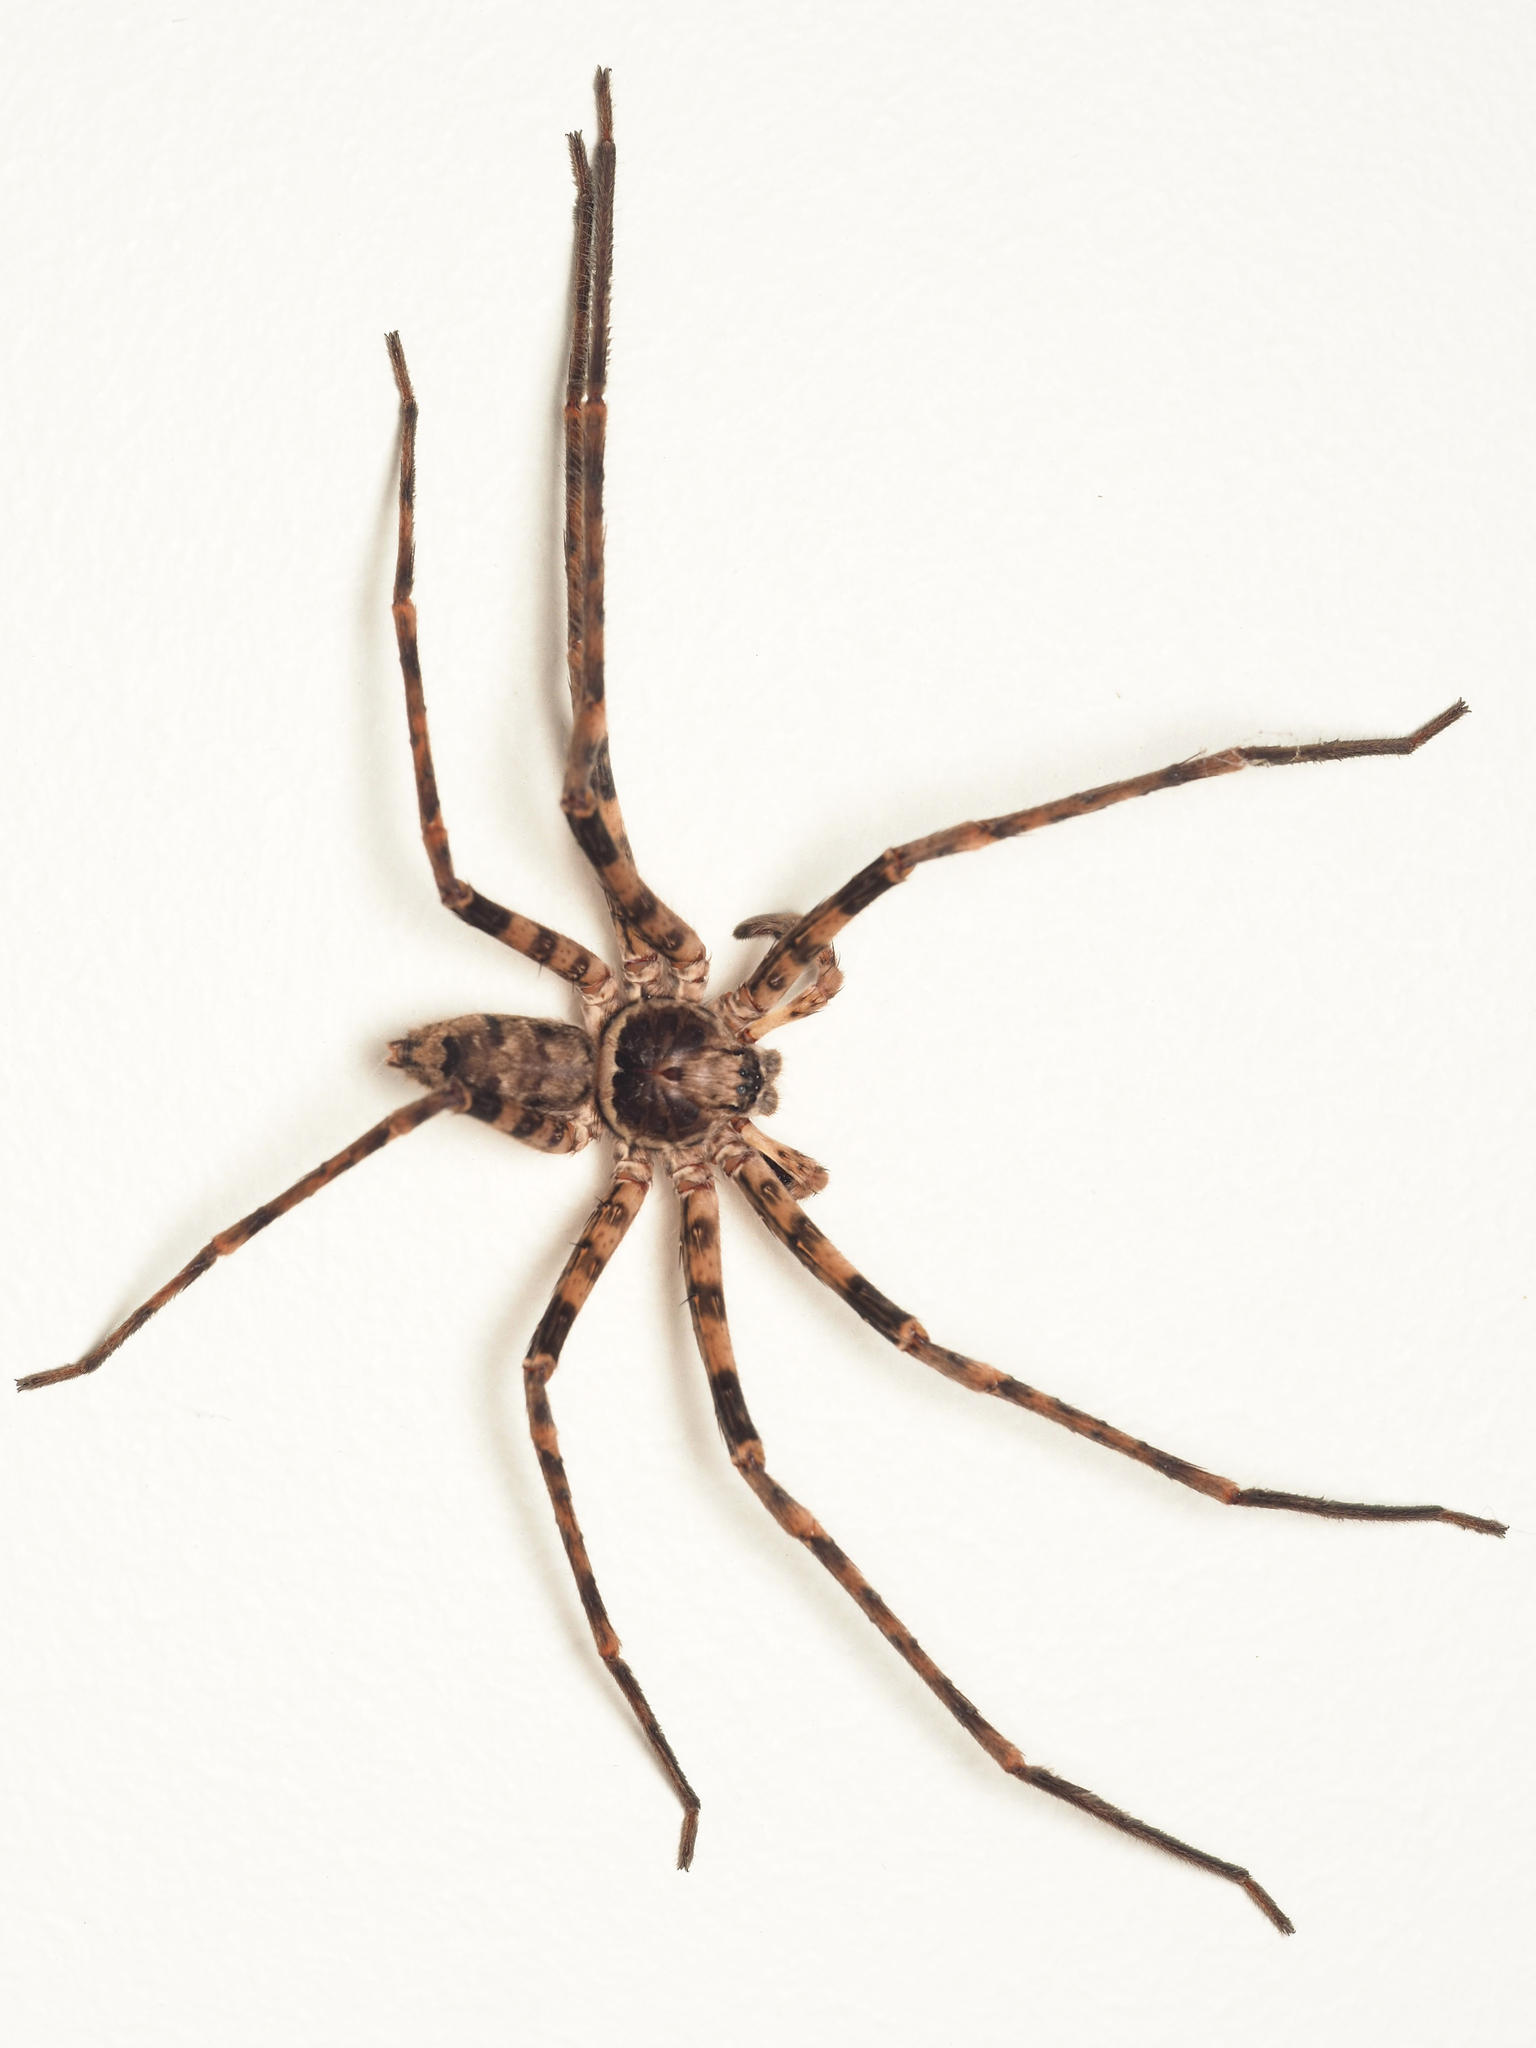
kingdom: Animalia
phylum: Arthropoda
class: Arachnida
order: Araneae
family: Sparassidae
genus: Heteropoda
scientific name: Heteropoda procera
